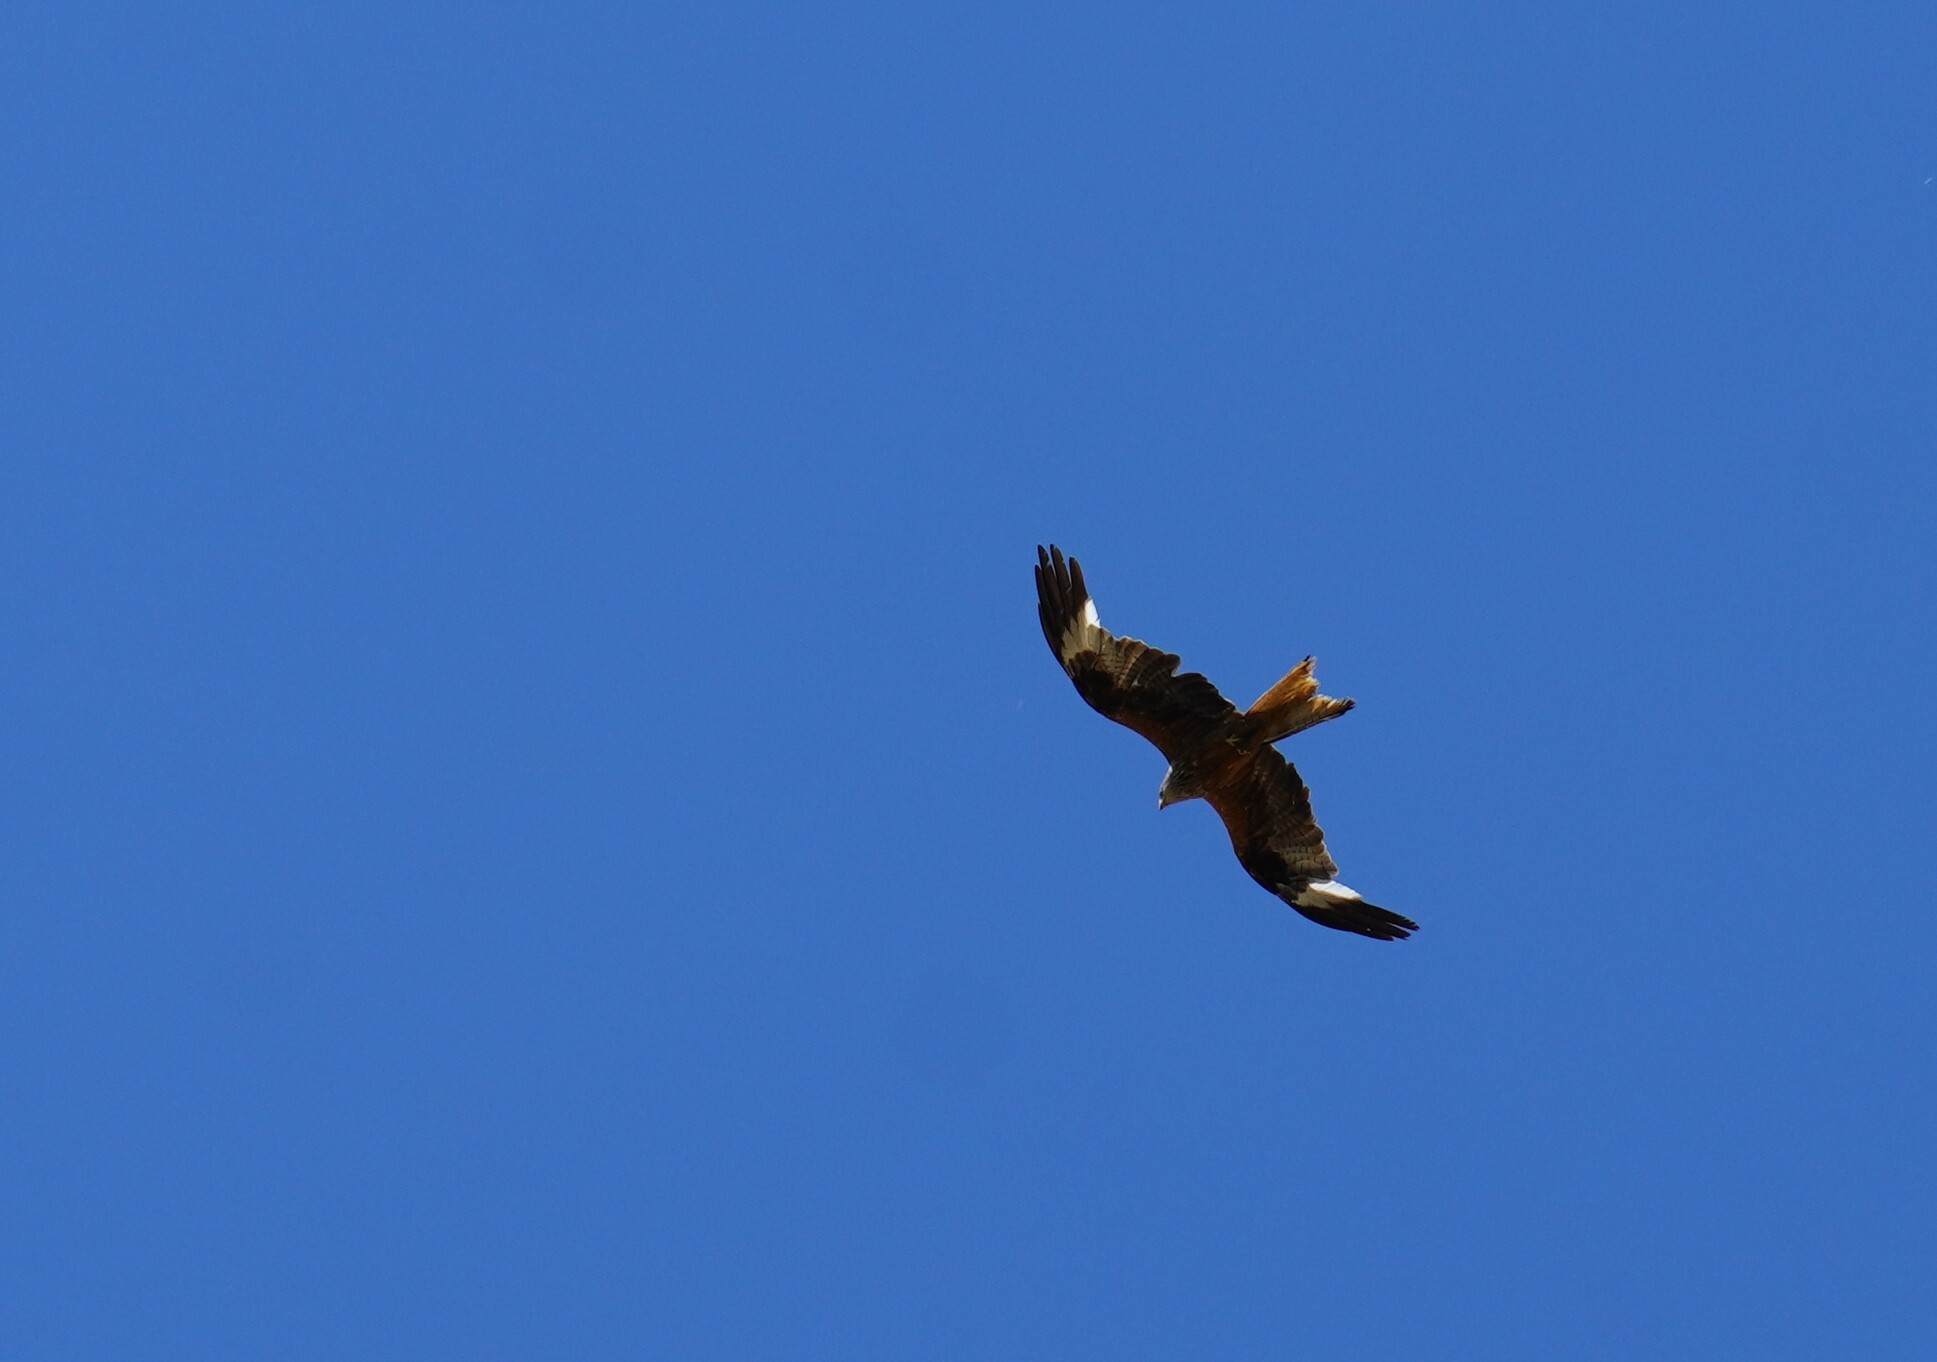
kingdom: Animalia
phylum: Chordata
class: Aves
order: Accipitriformes
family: Accipitridae
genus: Milvus
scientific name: Milvus milvus
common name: Red kite
